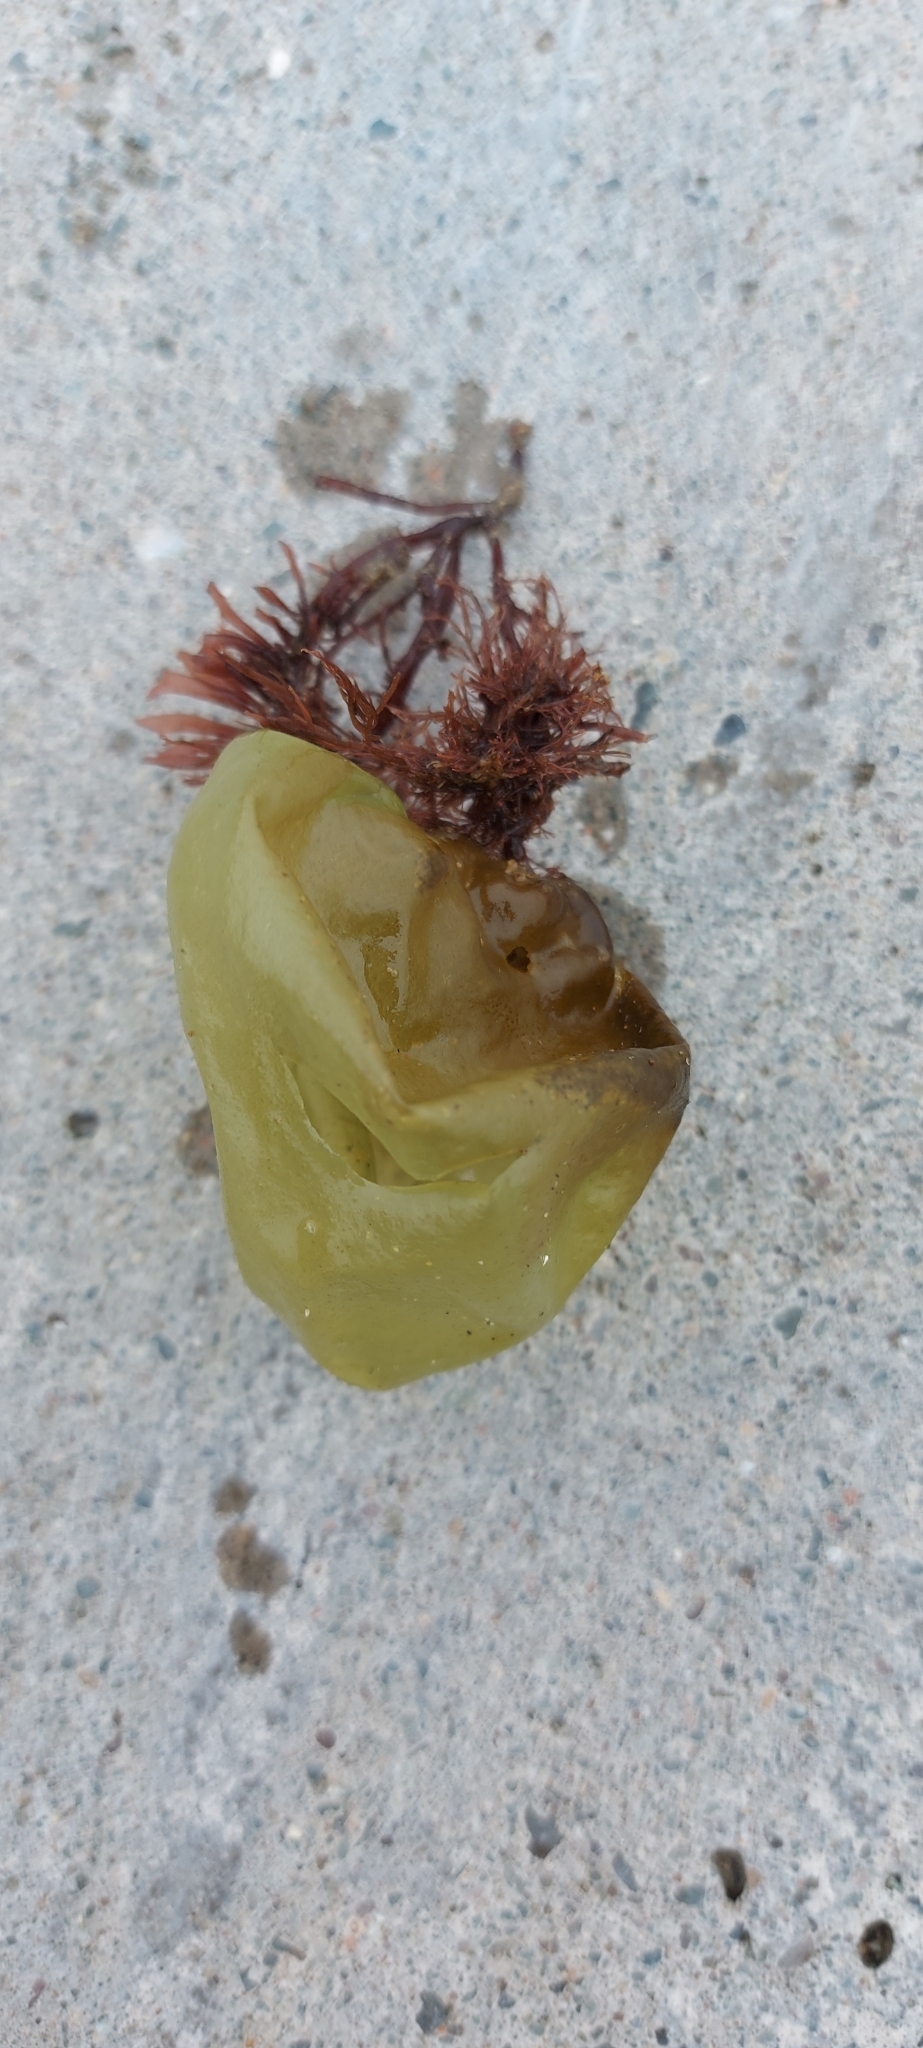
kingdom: Chromista
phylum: Ochrophyta
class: Phaeophyceae
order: Scytosiphonales
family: Scytosiphonaceae
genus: Colpomenia
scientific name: Colpomenia peregrina
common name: Oyster thief
